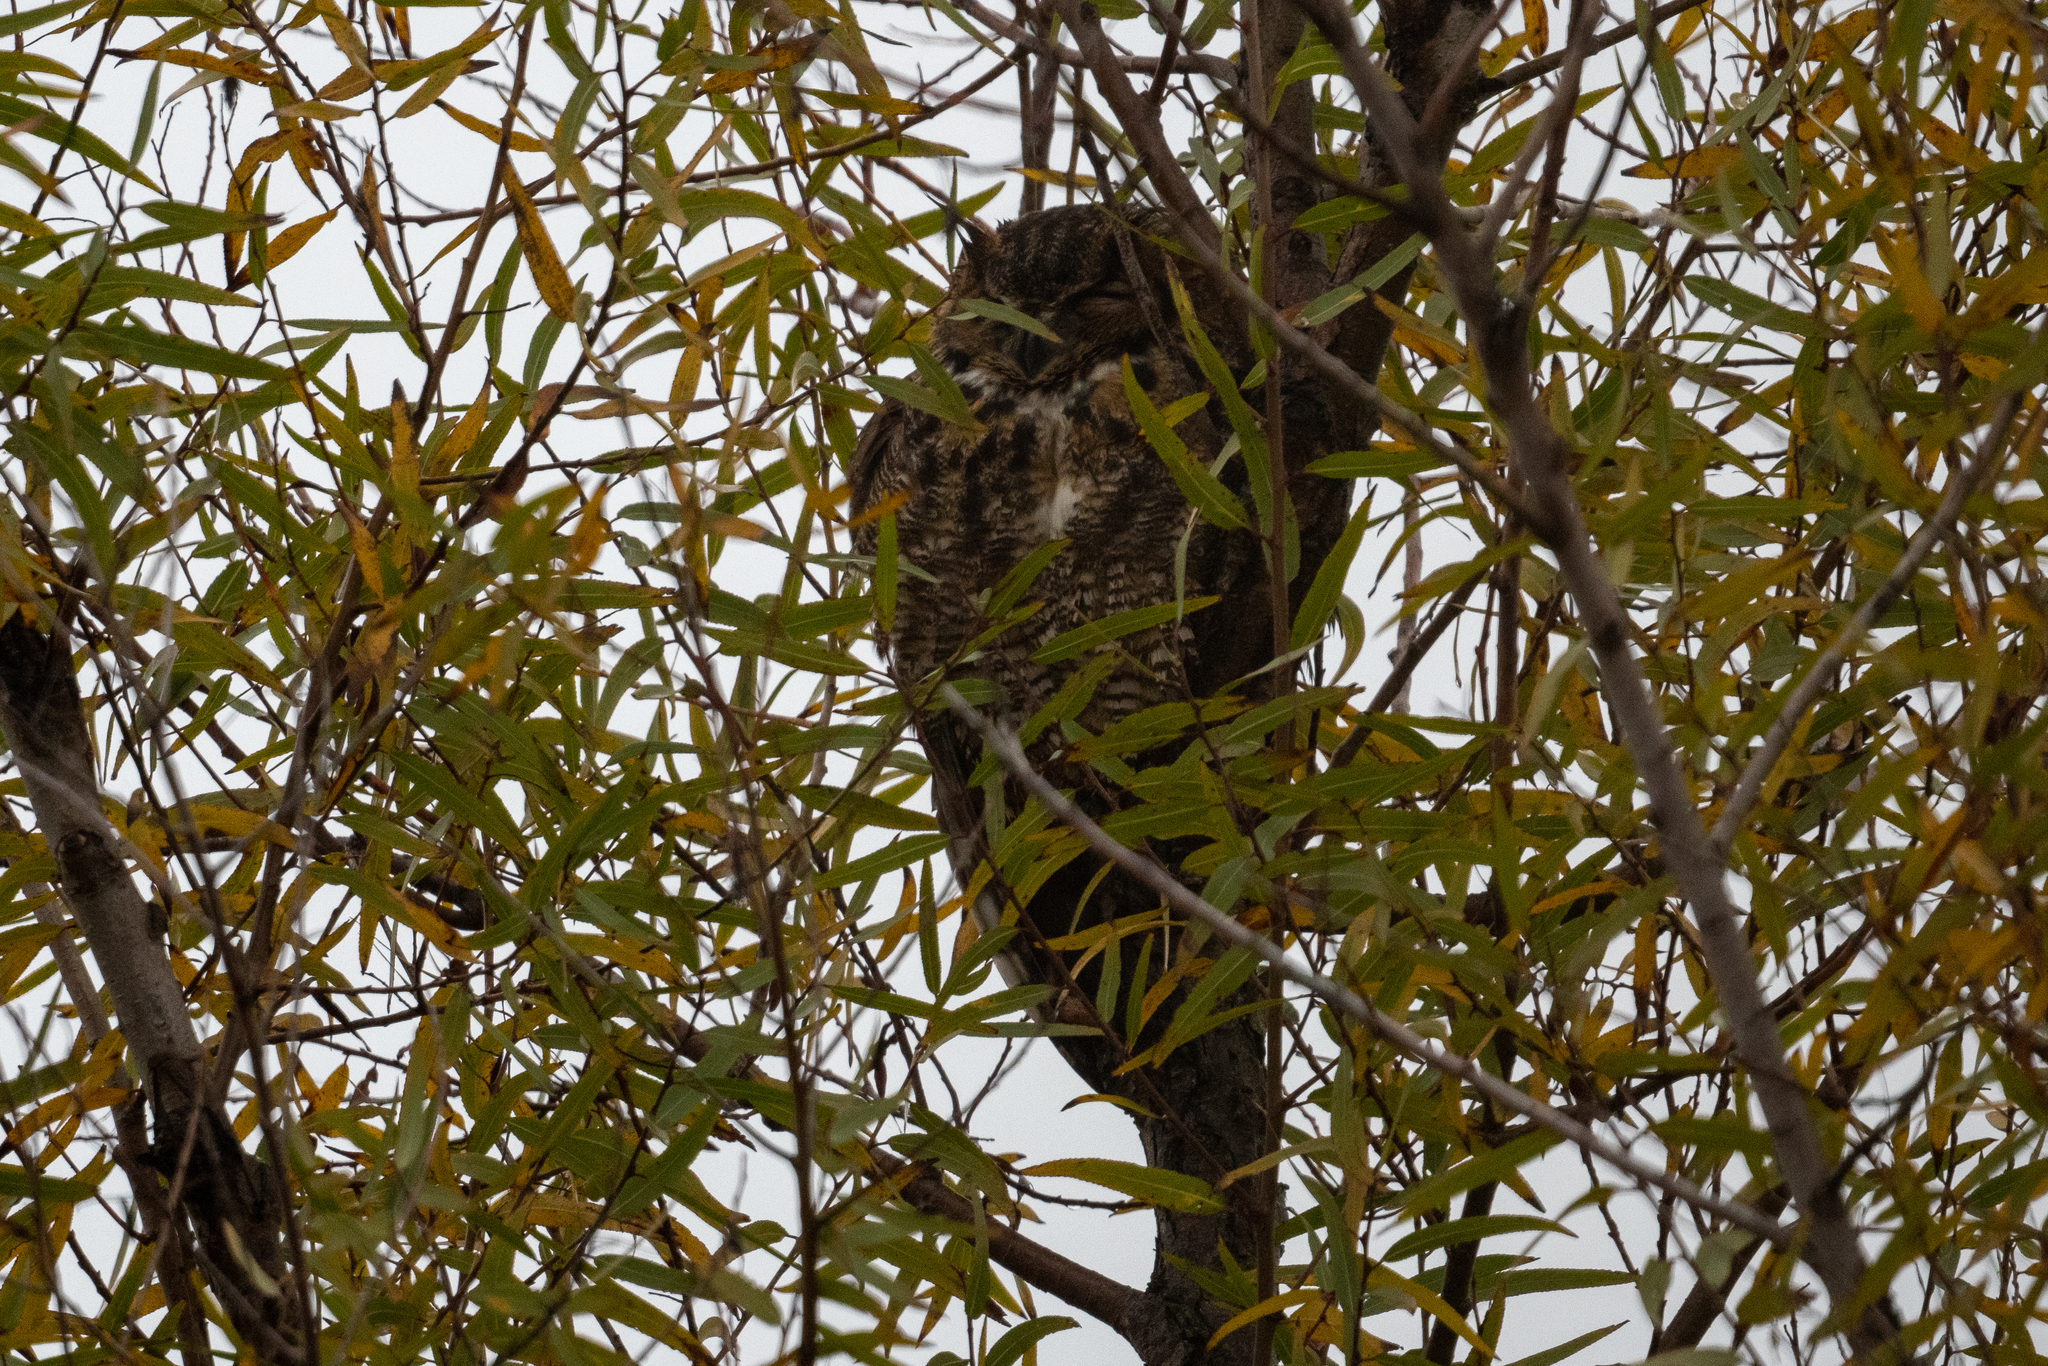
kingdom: Animalia
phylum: Chordata
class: Aves
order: Strigiformes
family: Strigidae
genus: Bubo
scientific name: Bubo virginianus
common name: Great horned owl
